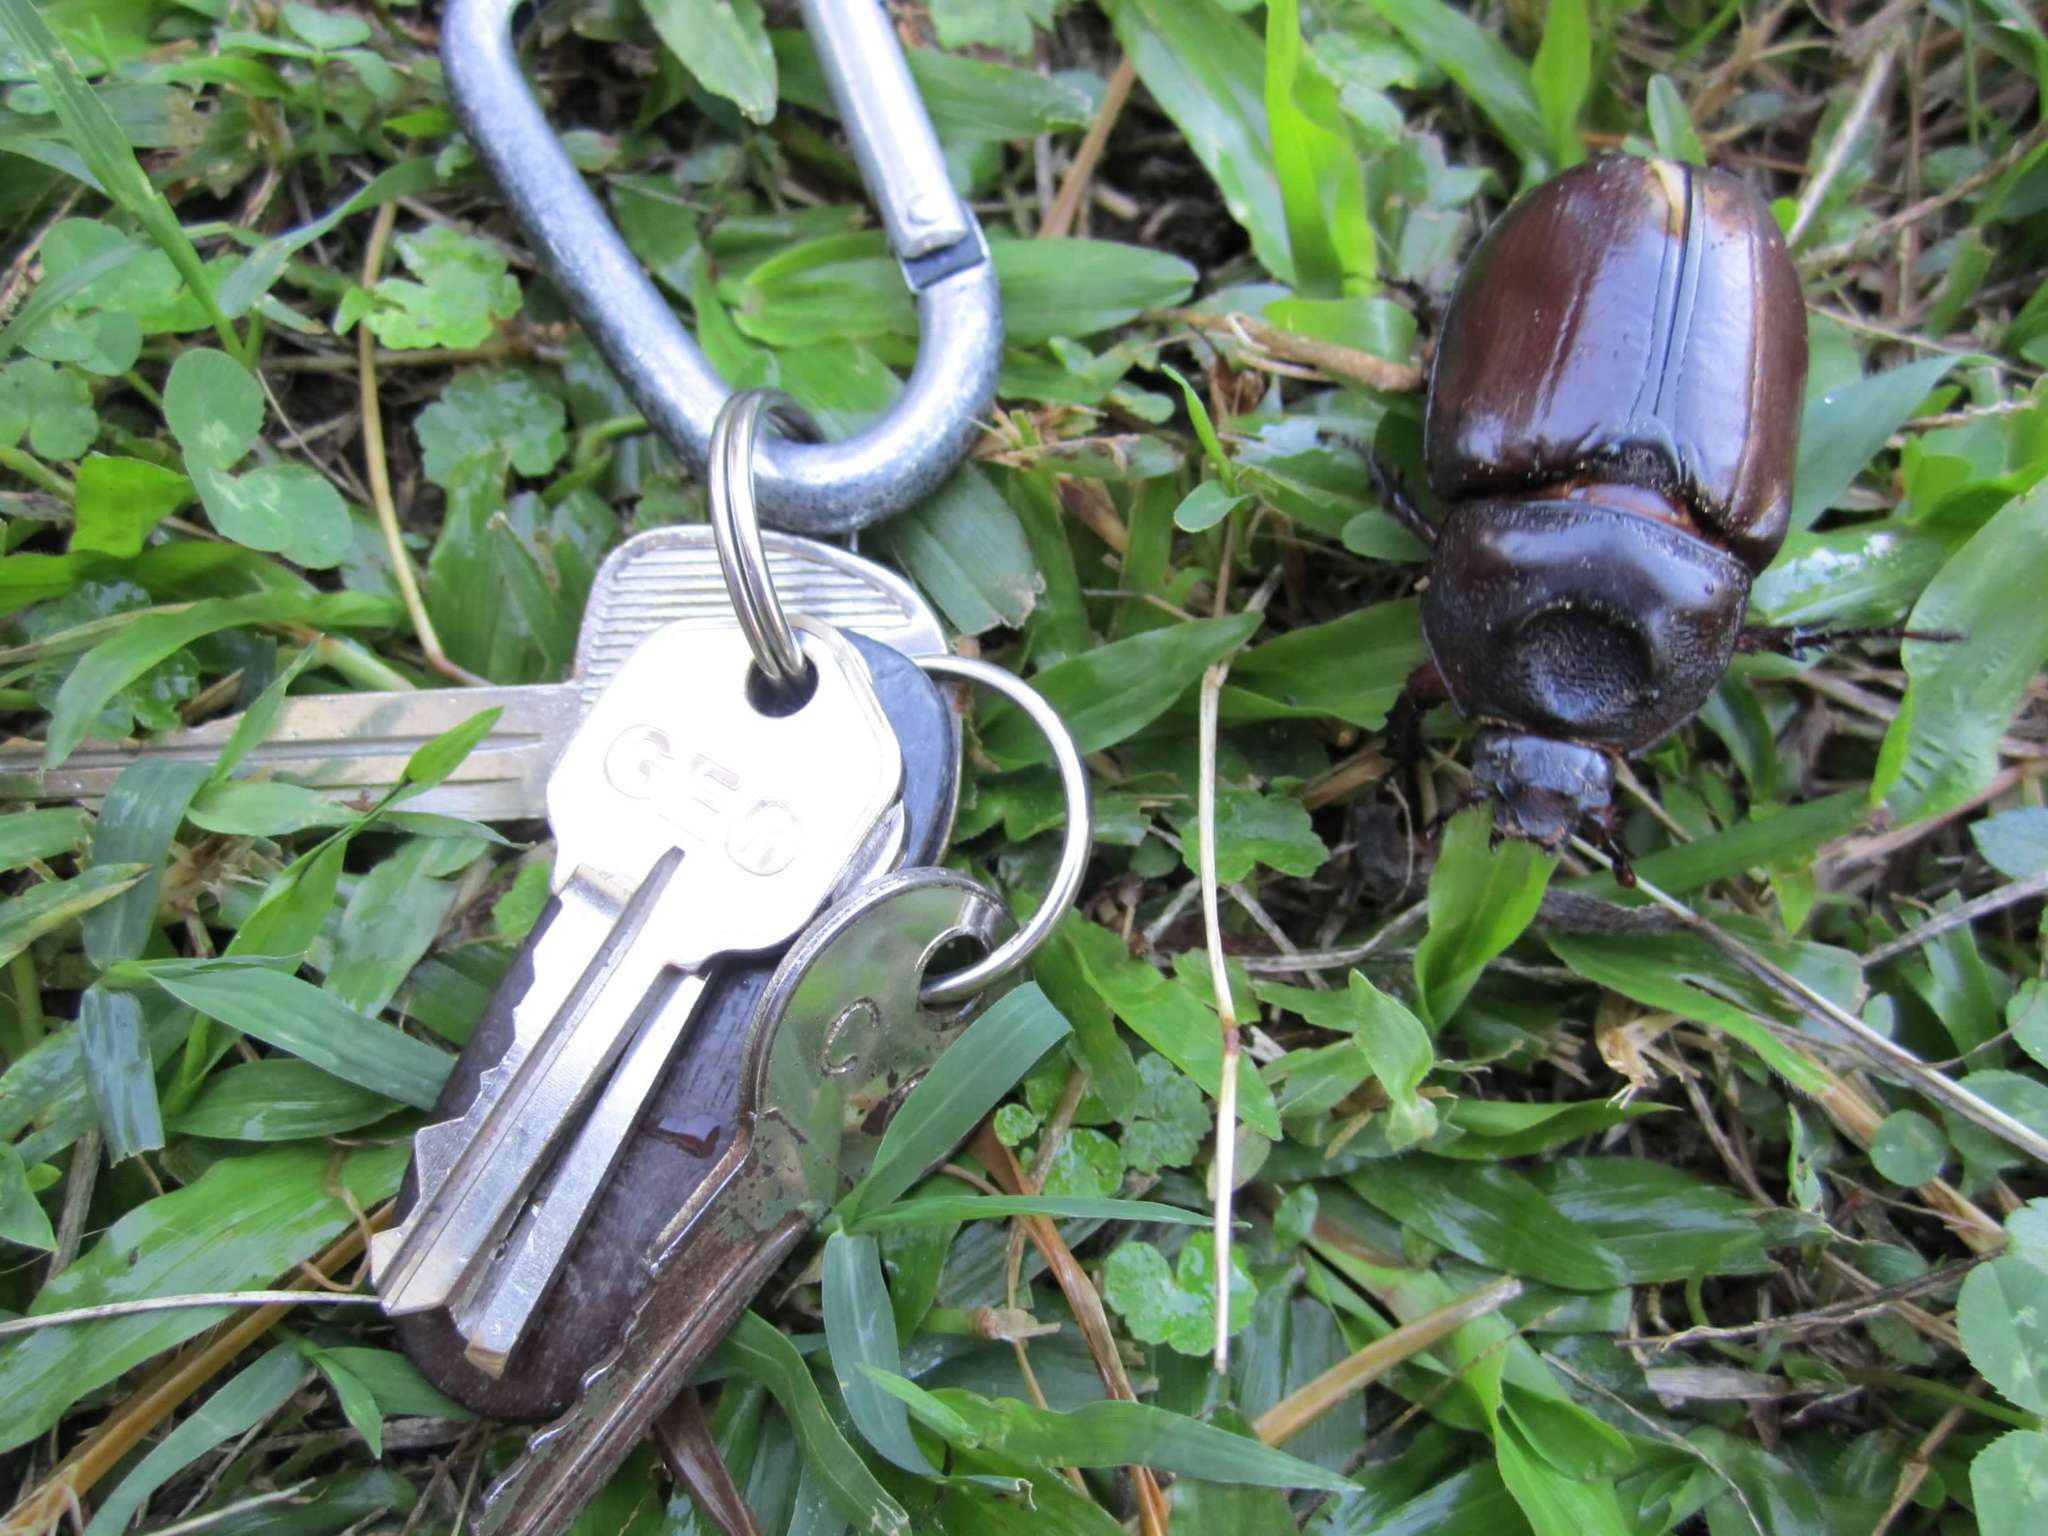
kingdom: Animalia
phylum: Arthropoda
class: Insecta
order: Coleoptera
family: Scarabaeidae
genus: Strategus
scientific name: Strategus aloeus
